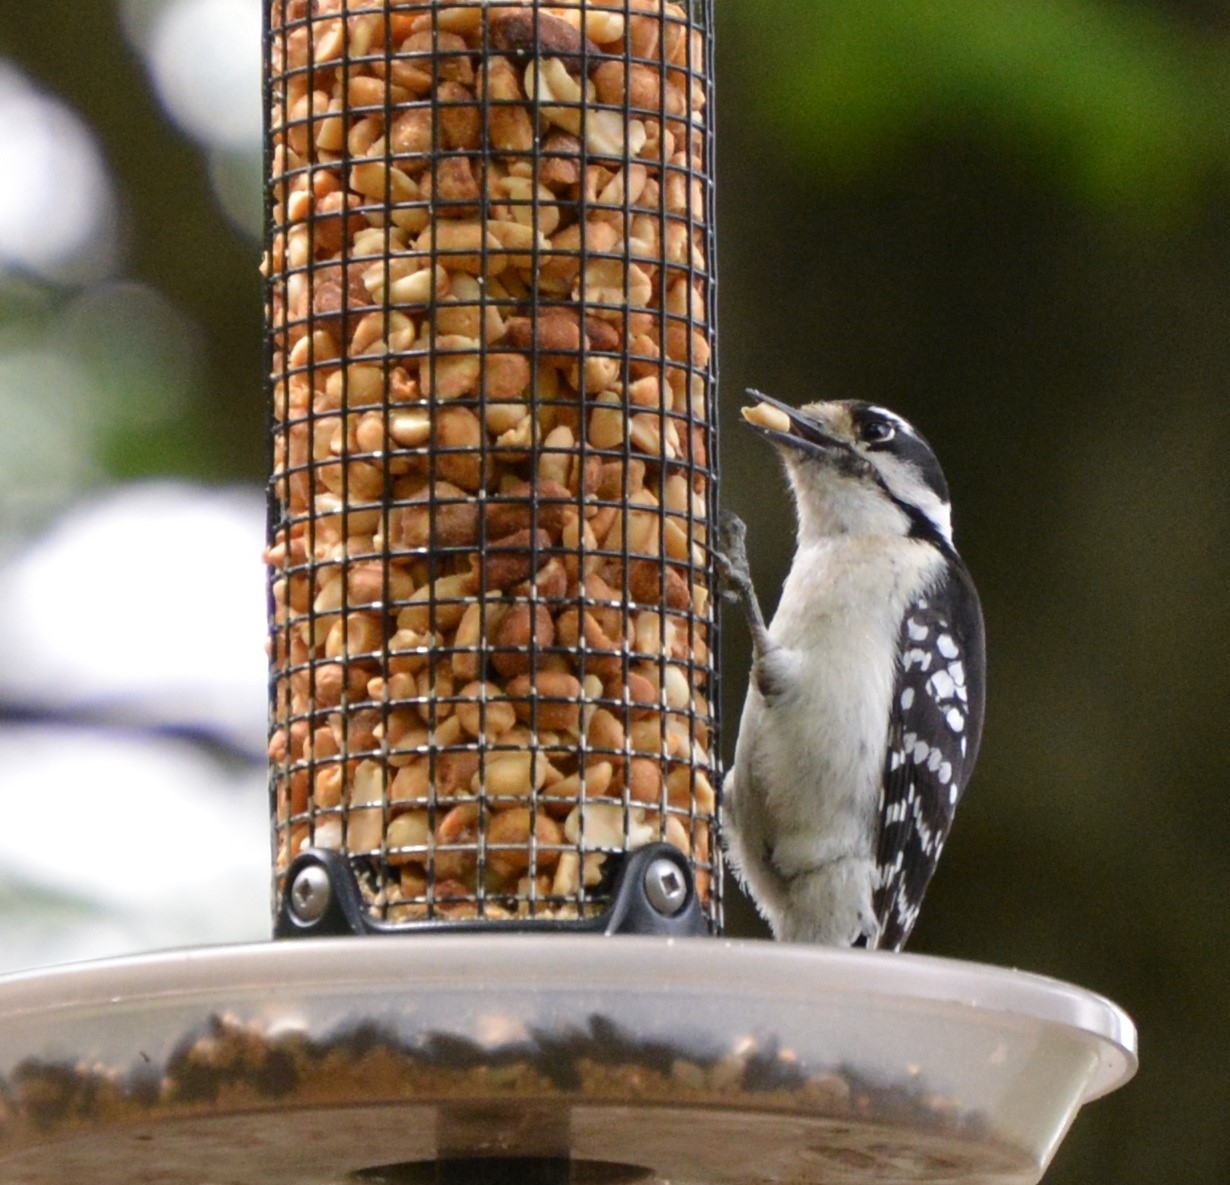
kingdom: Animalia
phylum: Chordata
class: Aves
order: Piciformes
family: Picidae
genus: Dryobates
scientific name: Dryobates pubescens
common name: Downy woodpecker
